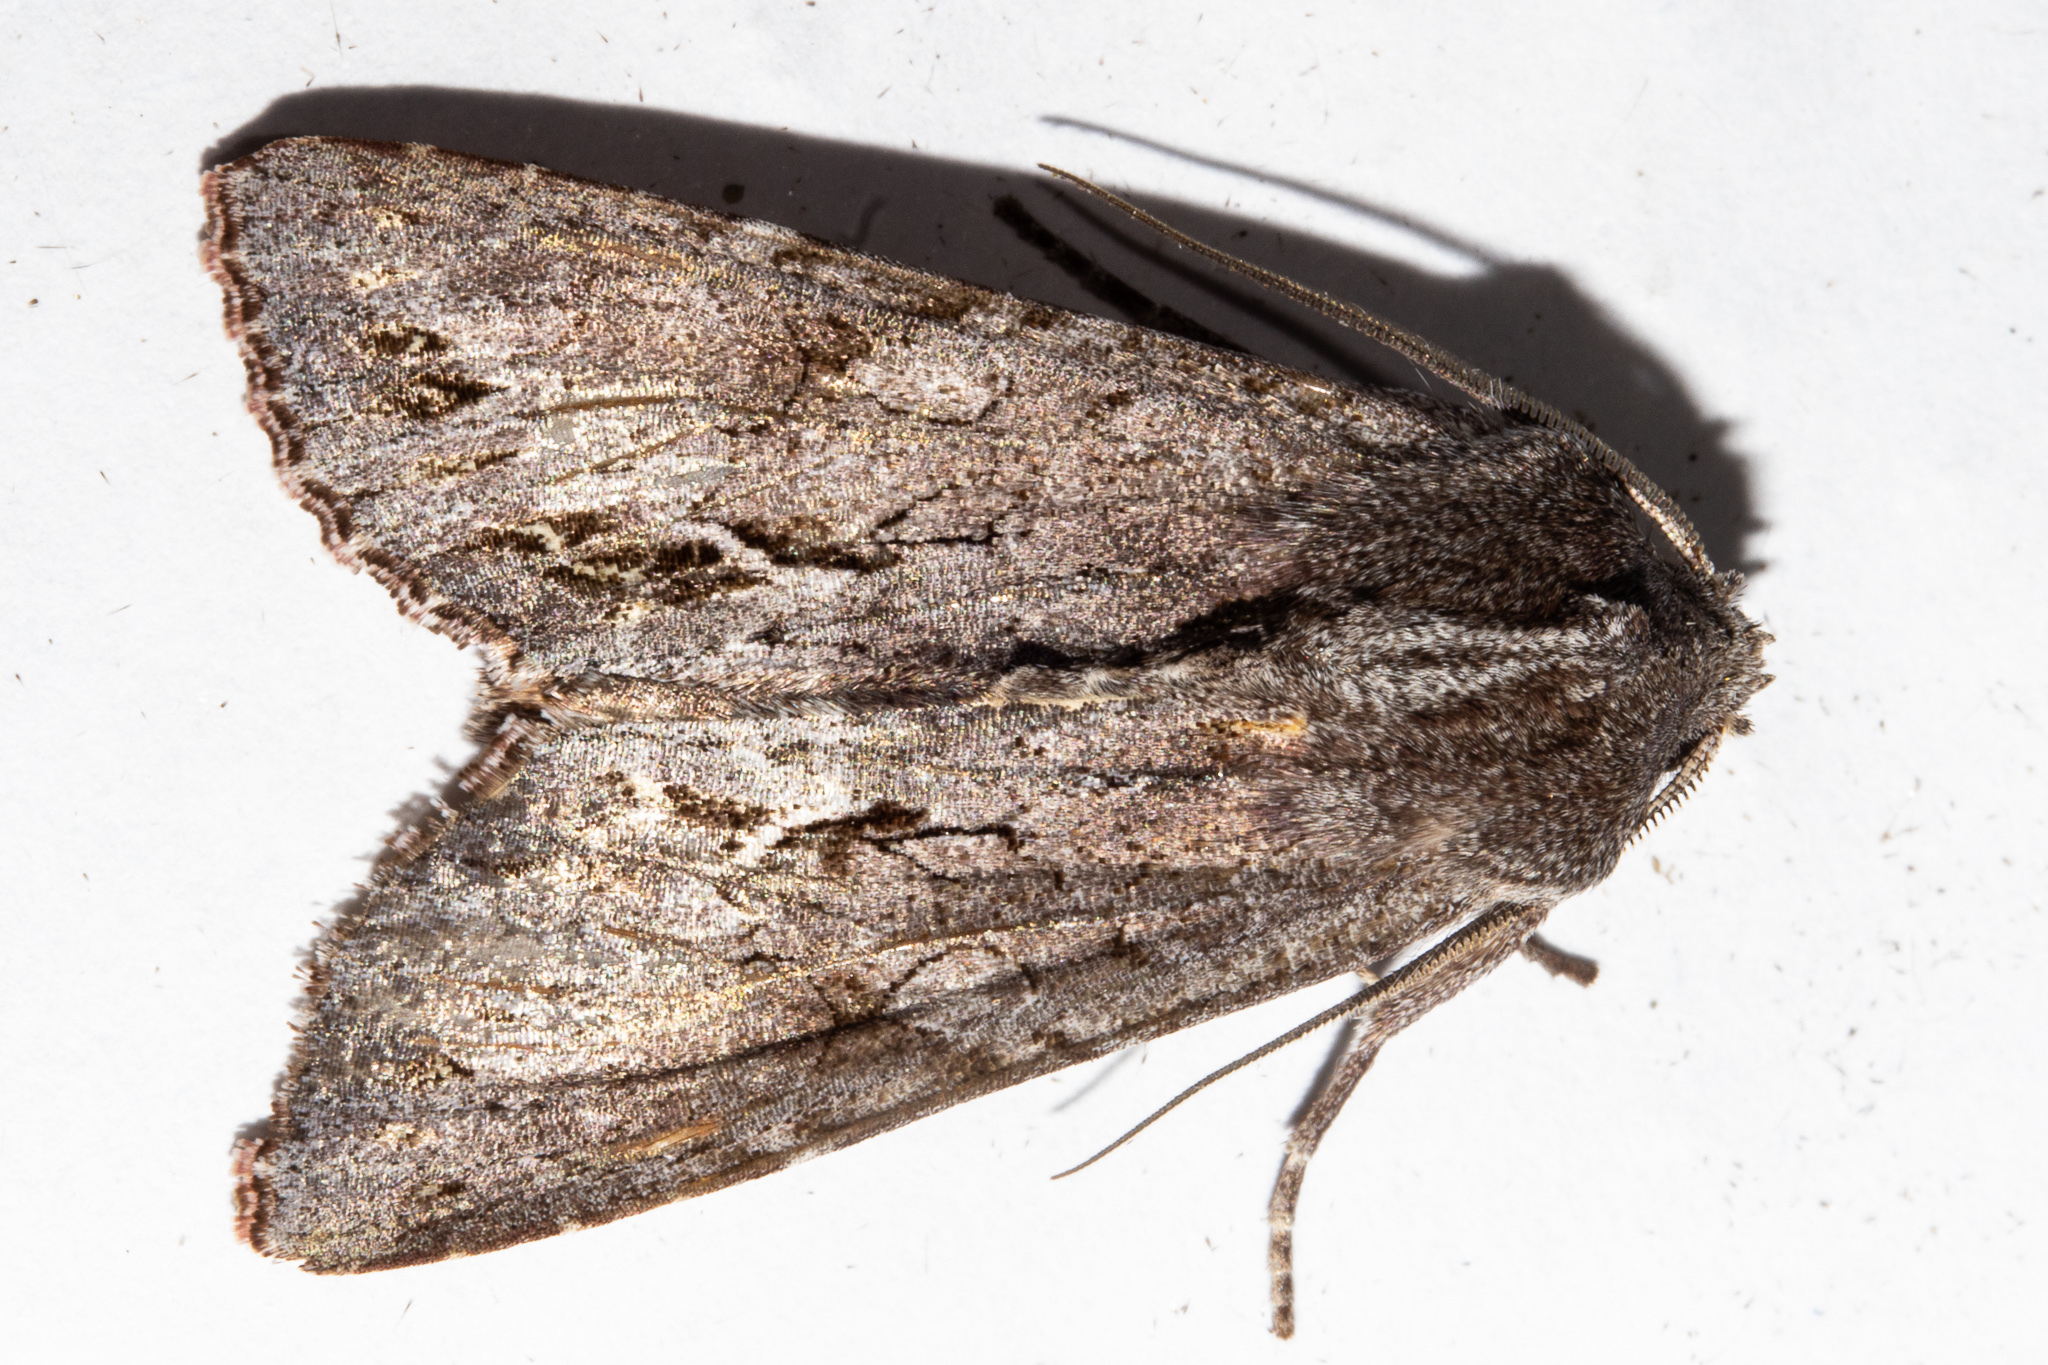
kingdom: Animalia
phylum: Arthropoda
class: Insecta
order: Lepidoptera
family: Noctuidae
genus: Ichneutica
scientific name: Ichneutica
